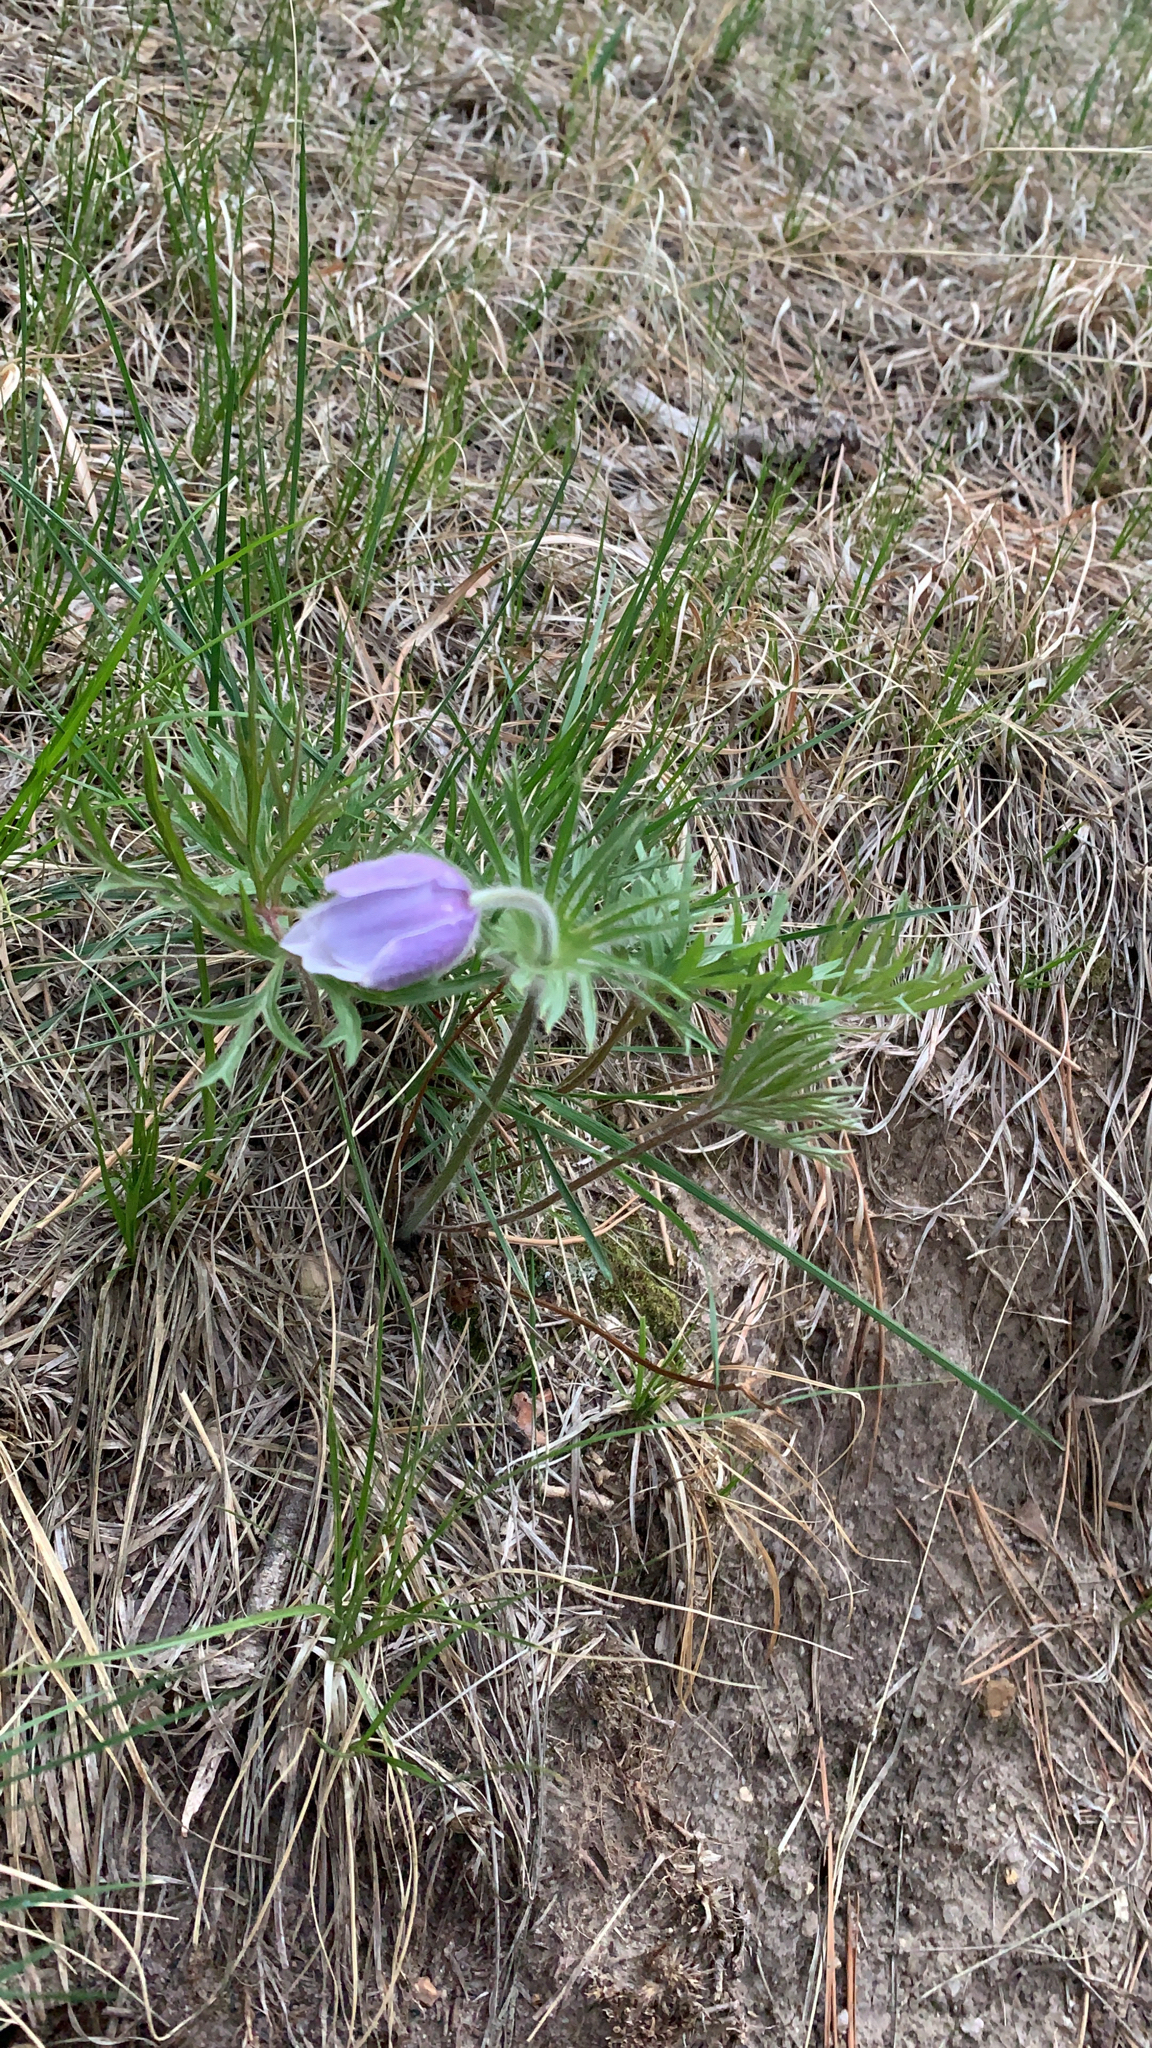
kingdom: Plantae
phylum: Tracheophyta
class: Magnoliopsida
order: Ranunculales
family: Ranunculaceae
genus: Pulsatilla
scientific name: Pulsatilla nuttalliana
